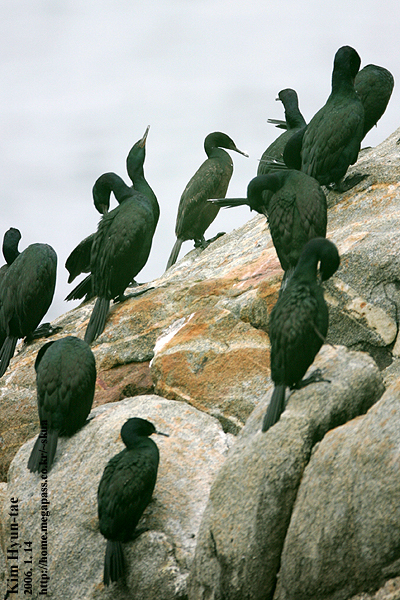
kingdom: Animalia
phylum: Chordata
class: Aves
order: Suliformes
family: Phalacrocoracidae
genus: Phalacrocorax
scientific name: Phalacrocorax pelagicus
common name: Pelagic cormorant
